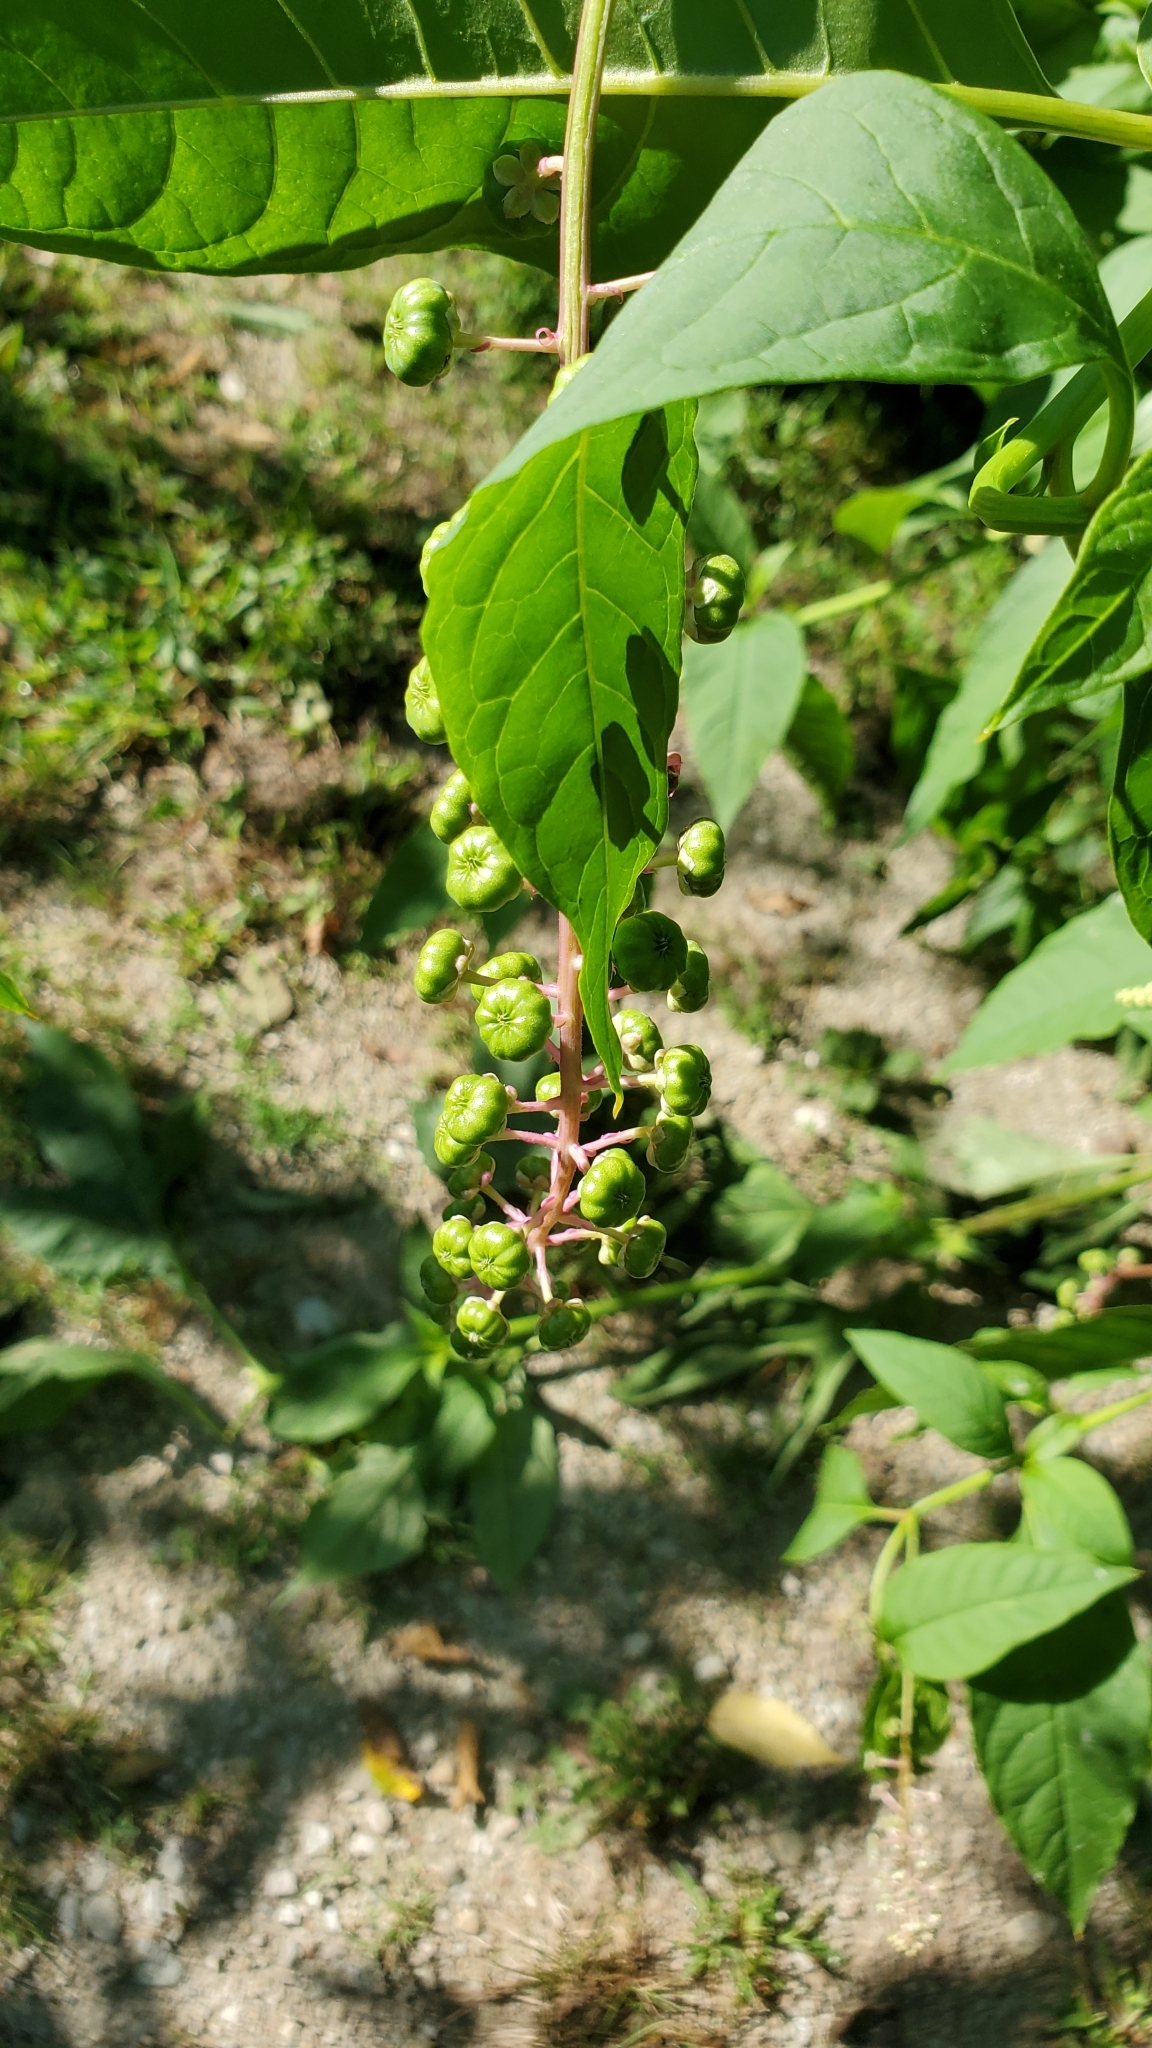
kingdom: Plantae
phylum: Tracheophyta
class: Magnoliopsida
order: Caryophyllales
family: Phytolaccaceae
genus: Phytolacca
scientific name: Phytolacca americana
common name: American pokeweed
